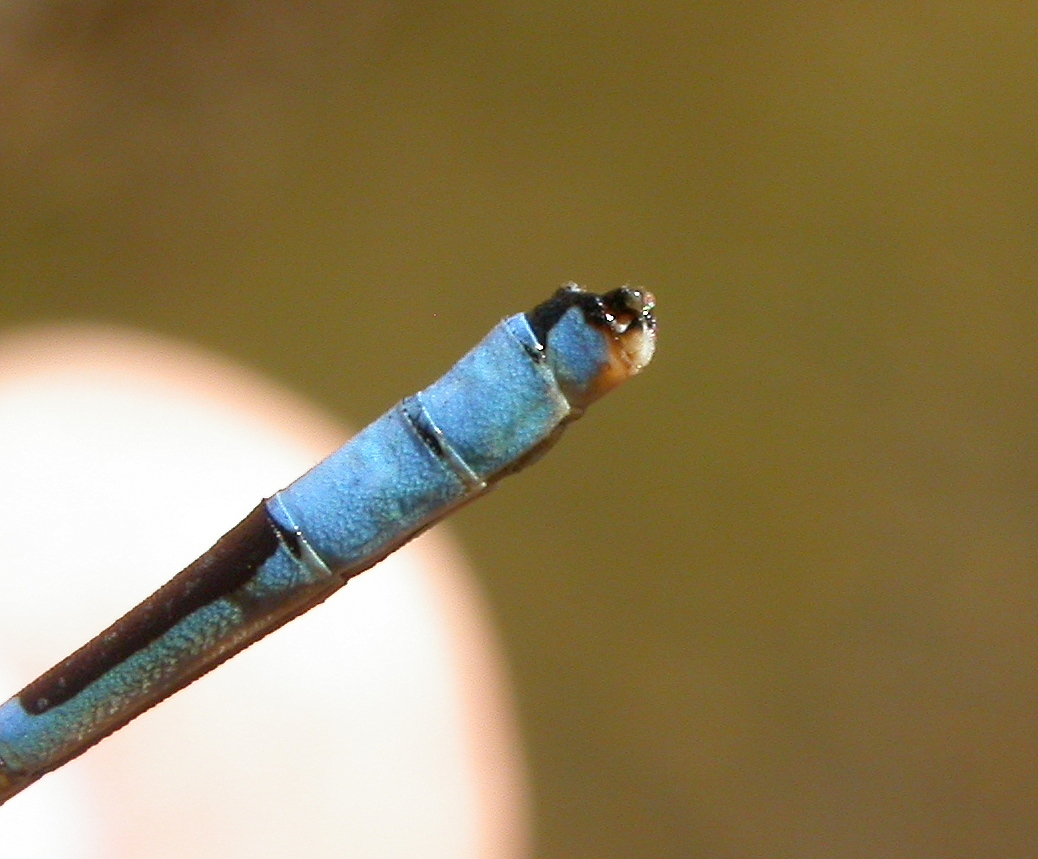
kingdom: Animalia
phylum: Arthropoda
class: Insecta
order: Odonata
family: Coenagrionidae
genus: Enallagma
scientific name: Enallagma carunculatum
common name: Tule bluet
